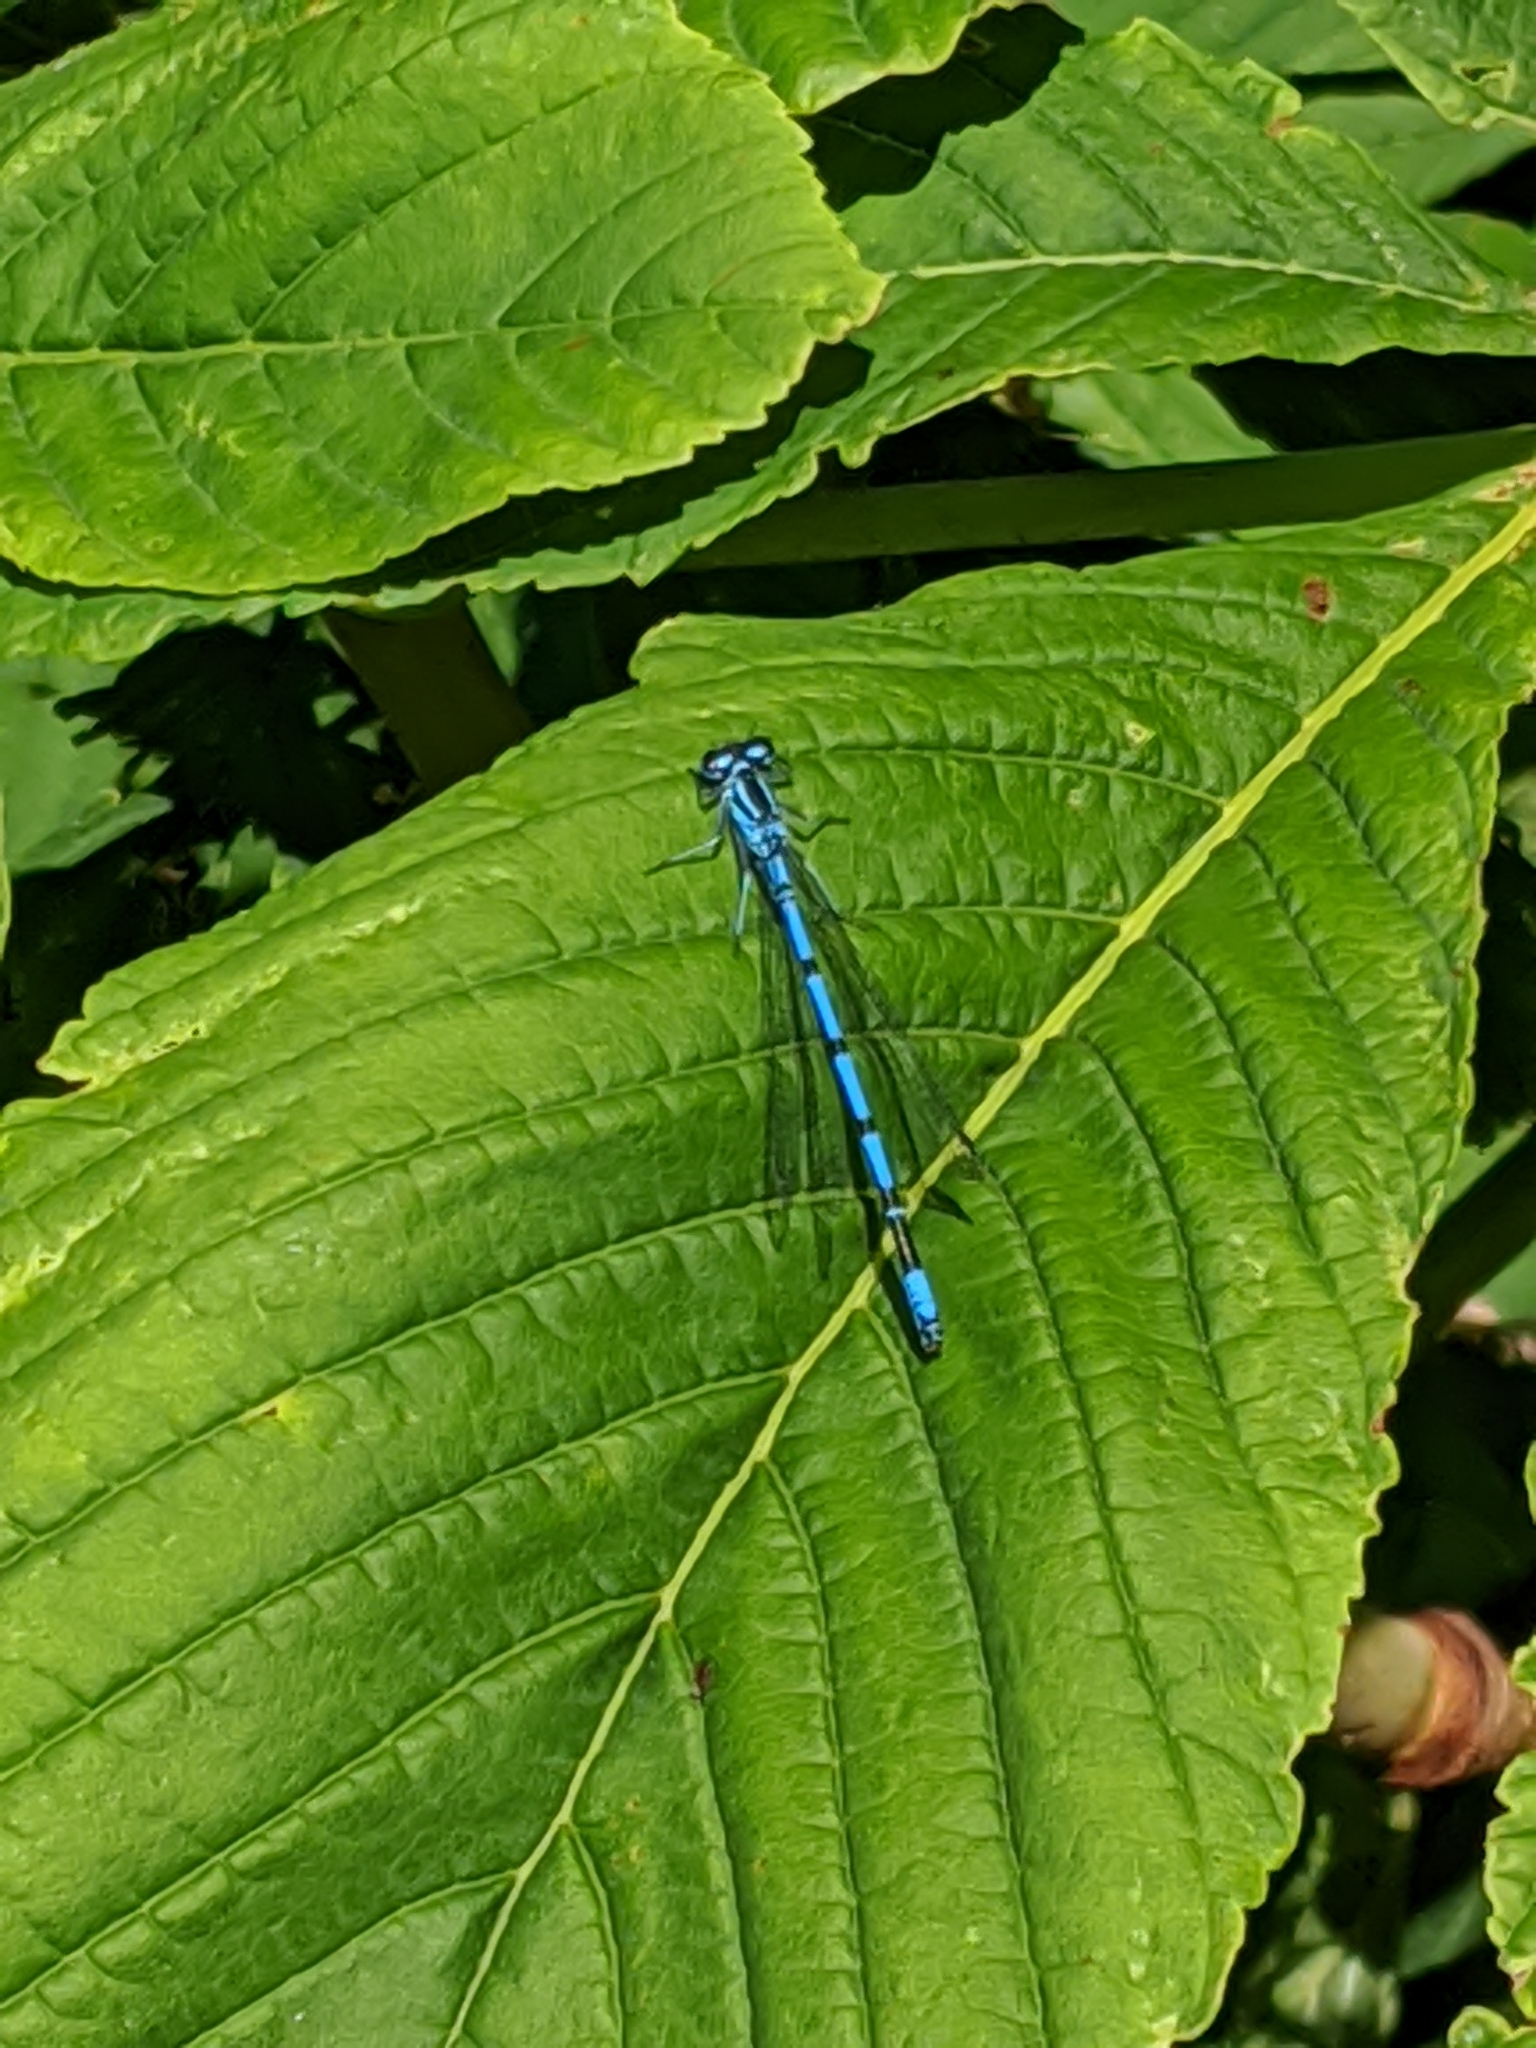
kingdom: Animalia
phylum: Arthropoda
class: Insecta
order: Odonata
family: Coenagrionidae
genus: Coenagrion
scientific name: Coenagrion puella
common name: Azure damselfly
